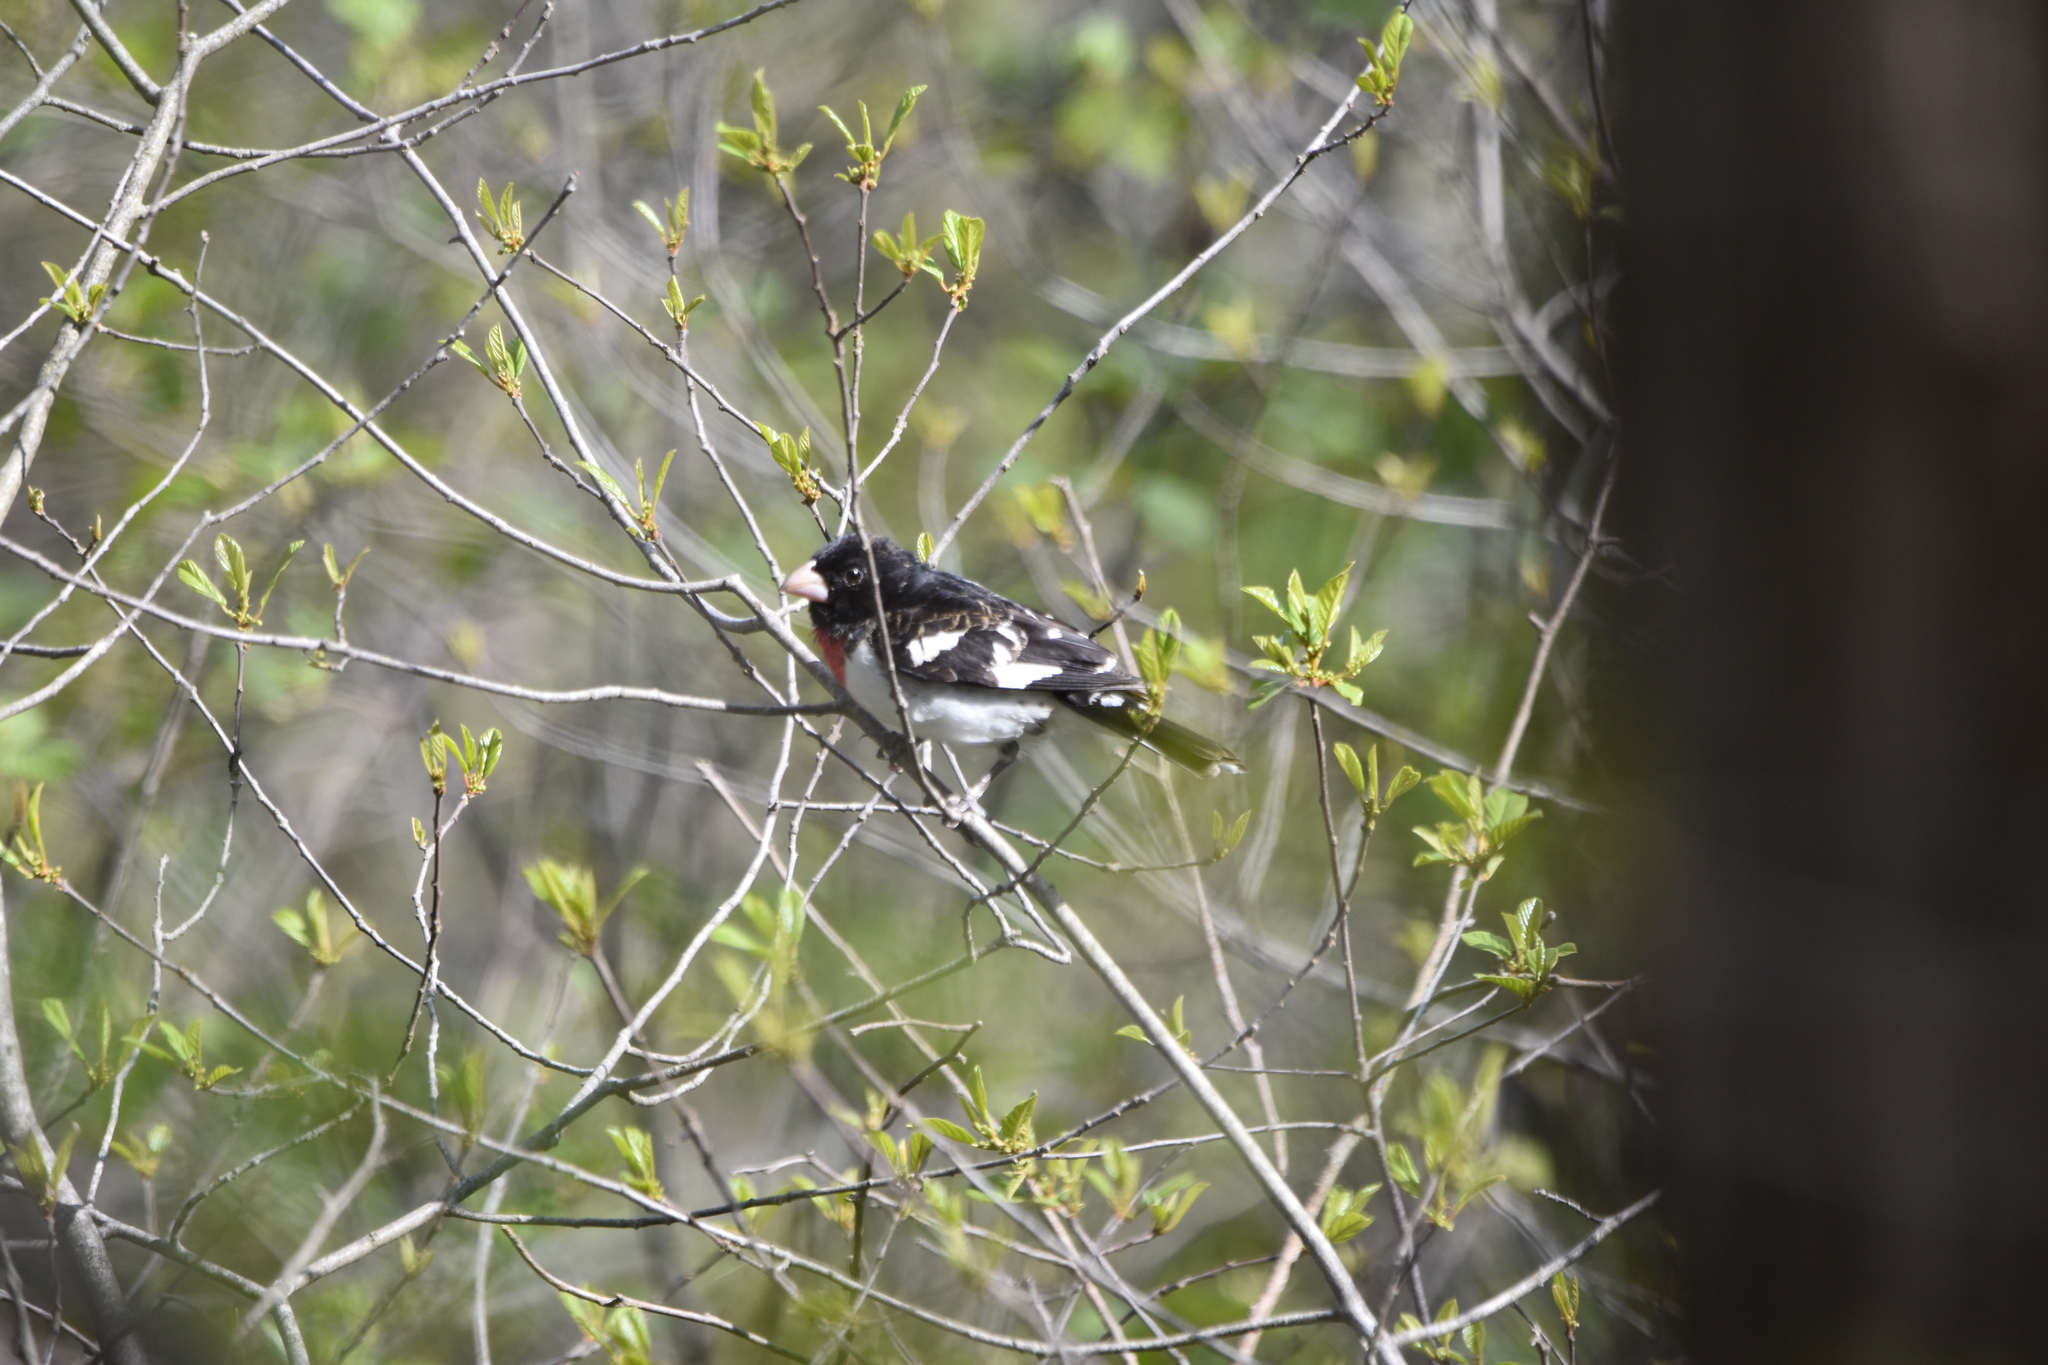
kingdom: Animalia
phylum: Chordata
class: Aves
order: Passeriformes
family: Cardinalidae
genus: Pheucticus
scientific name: Pheucticus ludovicianus
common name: Rose-breasted grosbeak
